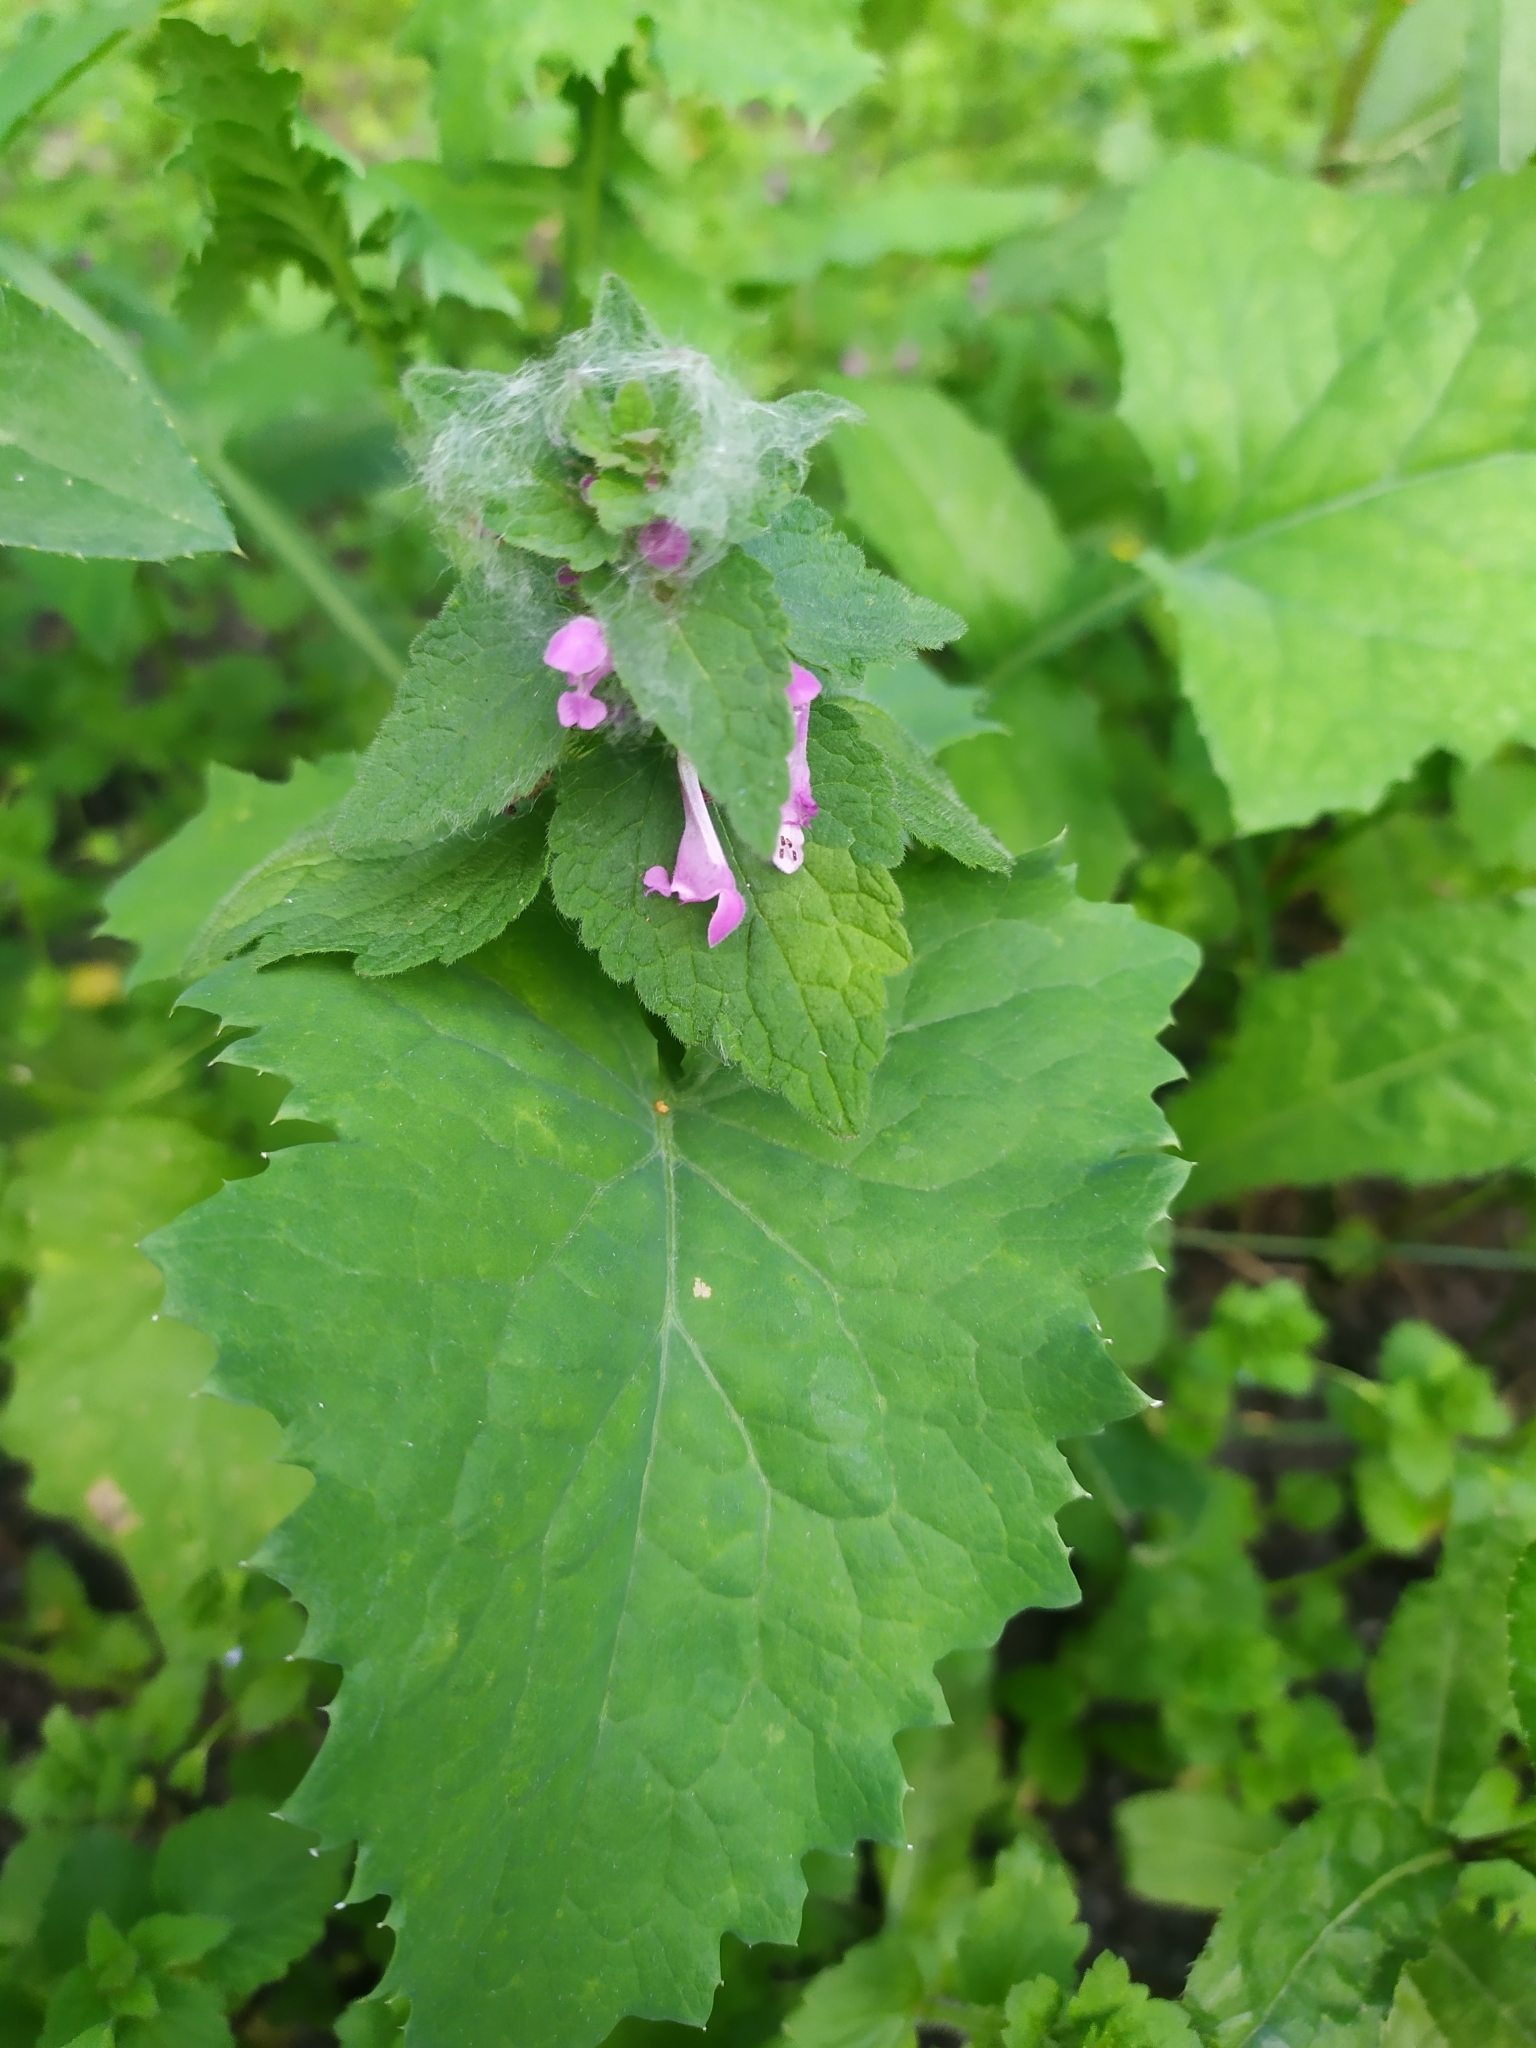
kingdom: Plantae
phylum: Tracheophyta
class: Magnoliopsida
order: Lamiales
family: Lamiaceae
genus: Lamium
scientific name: Lamium maculatum
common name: Spotted dead-nettle
